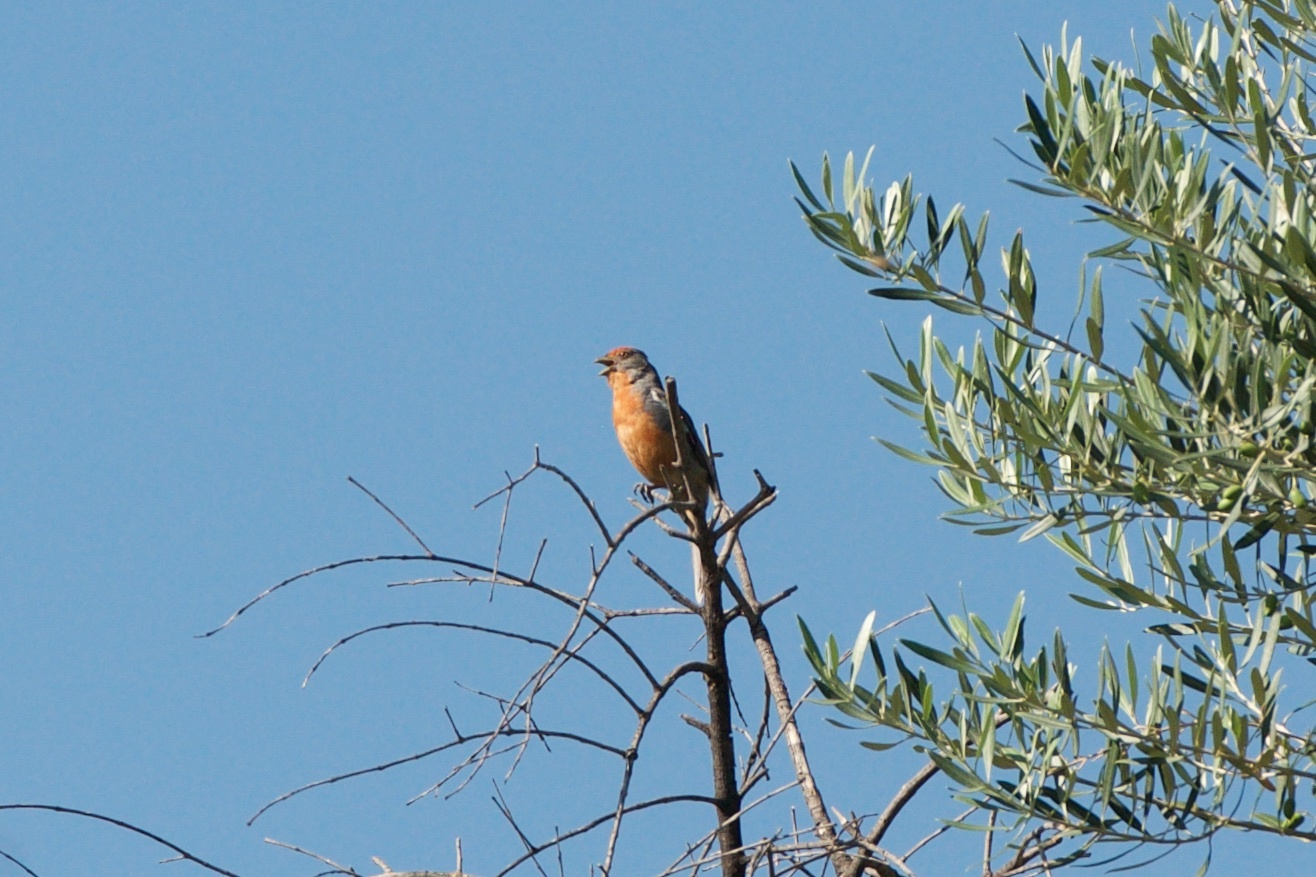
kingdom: Animalia
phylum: Chordata
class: Aves
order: Passeriformes
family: Cotingidae
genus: Phytotoma
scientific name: Phytotoma rutila
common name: White-tipped plantcutter
